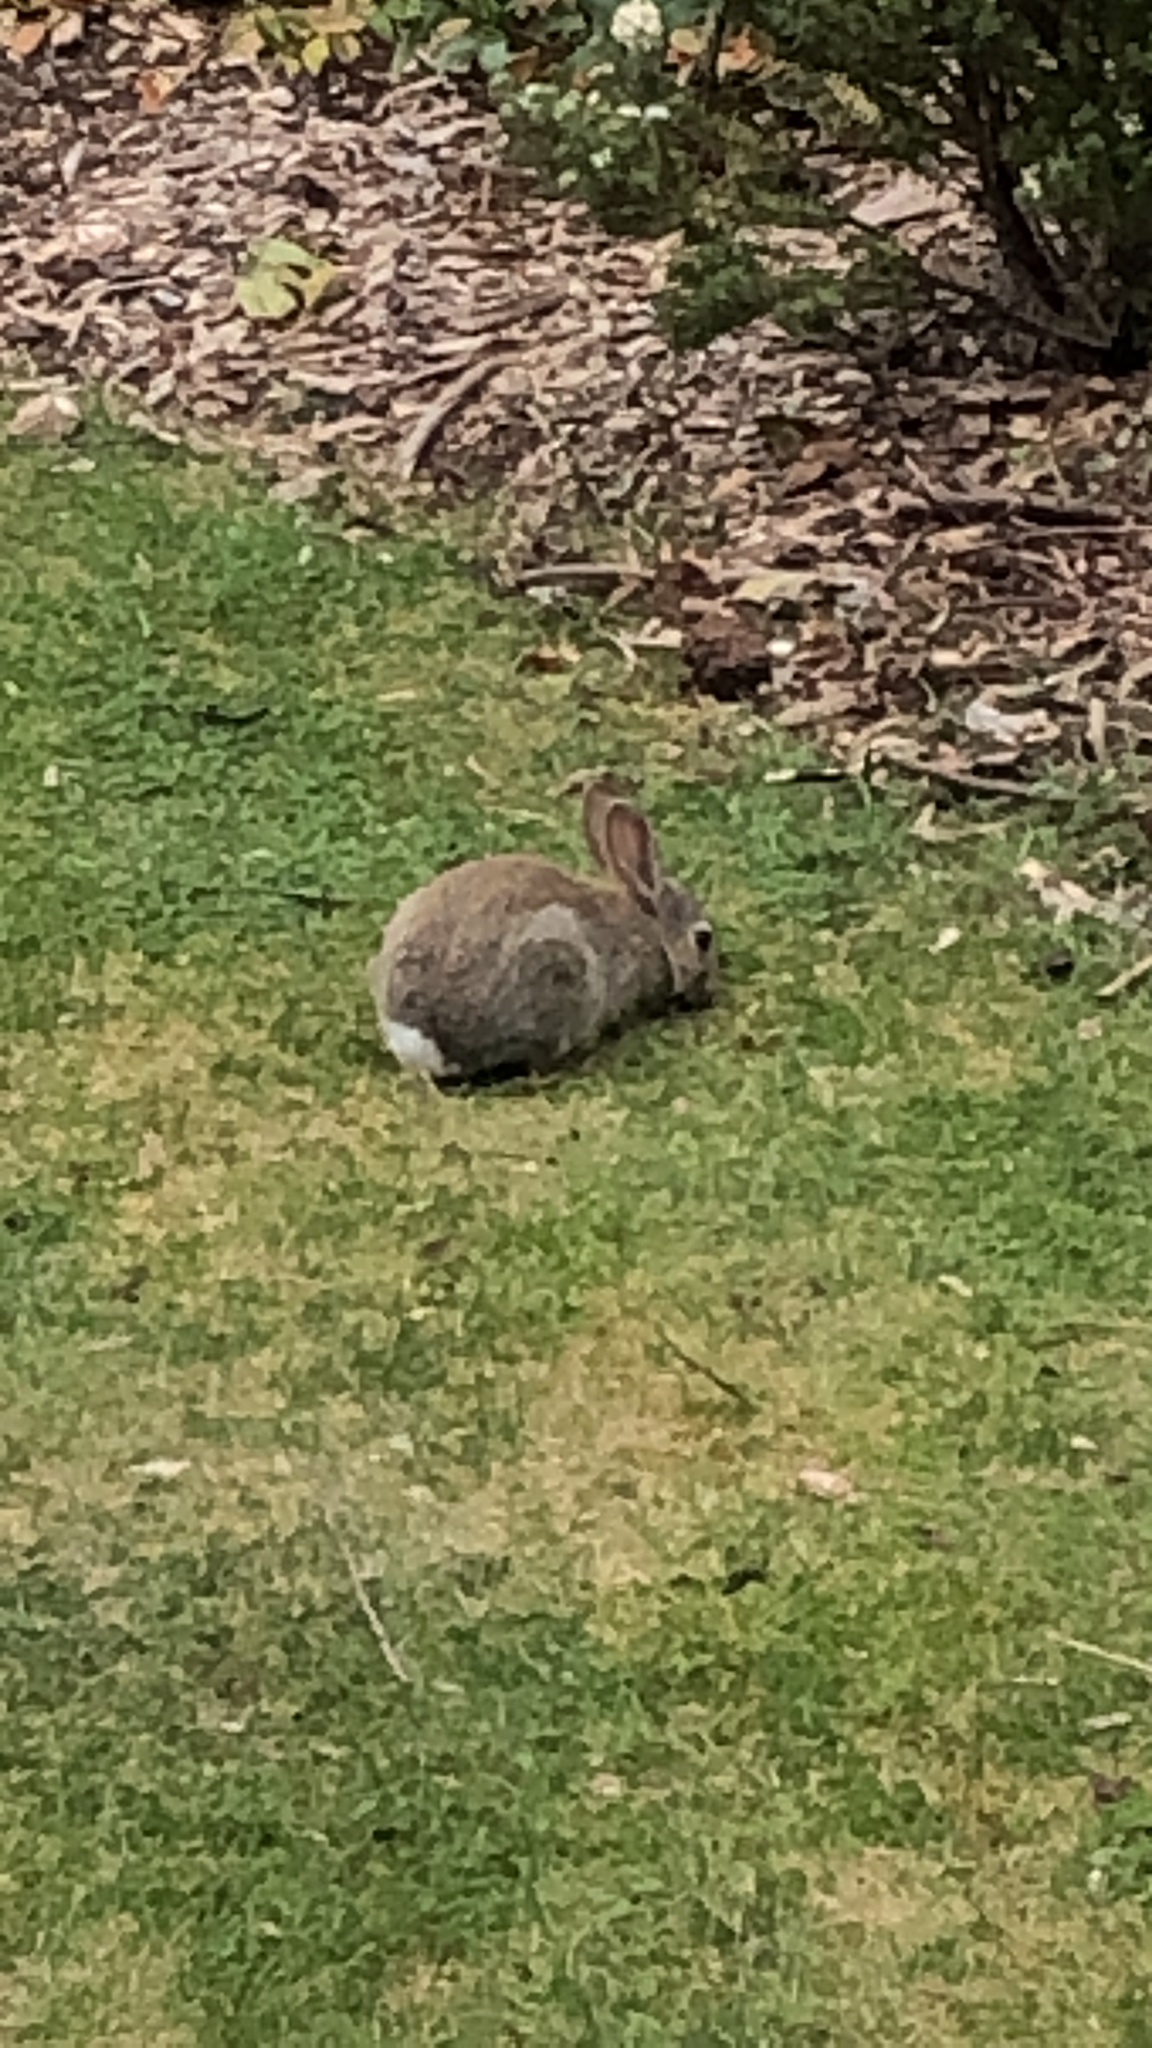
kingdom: Animalia
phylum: Chordata
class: Mammalia
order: Lagomorpha
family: Leporidae
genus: Oryctolagus
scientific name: Oryctolagus cuniculus
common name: European rabbit
